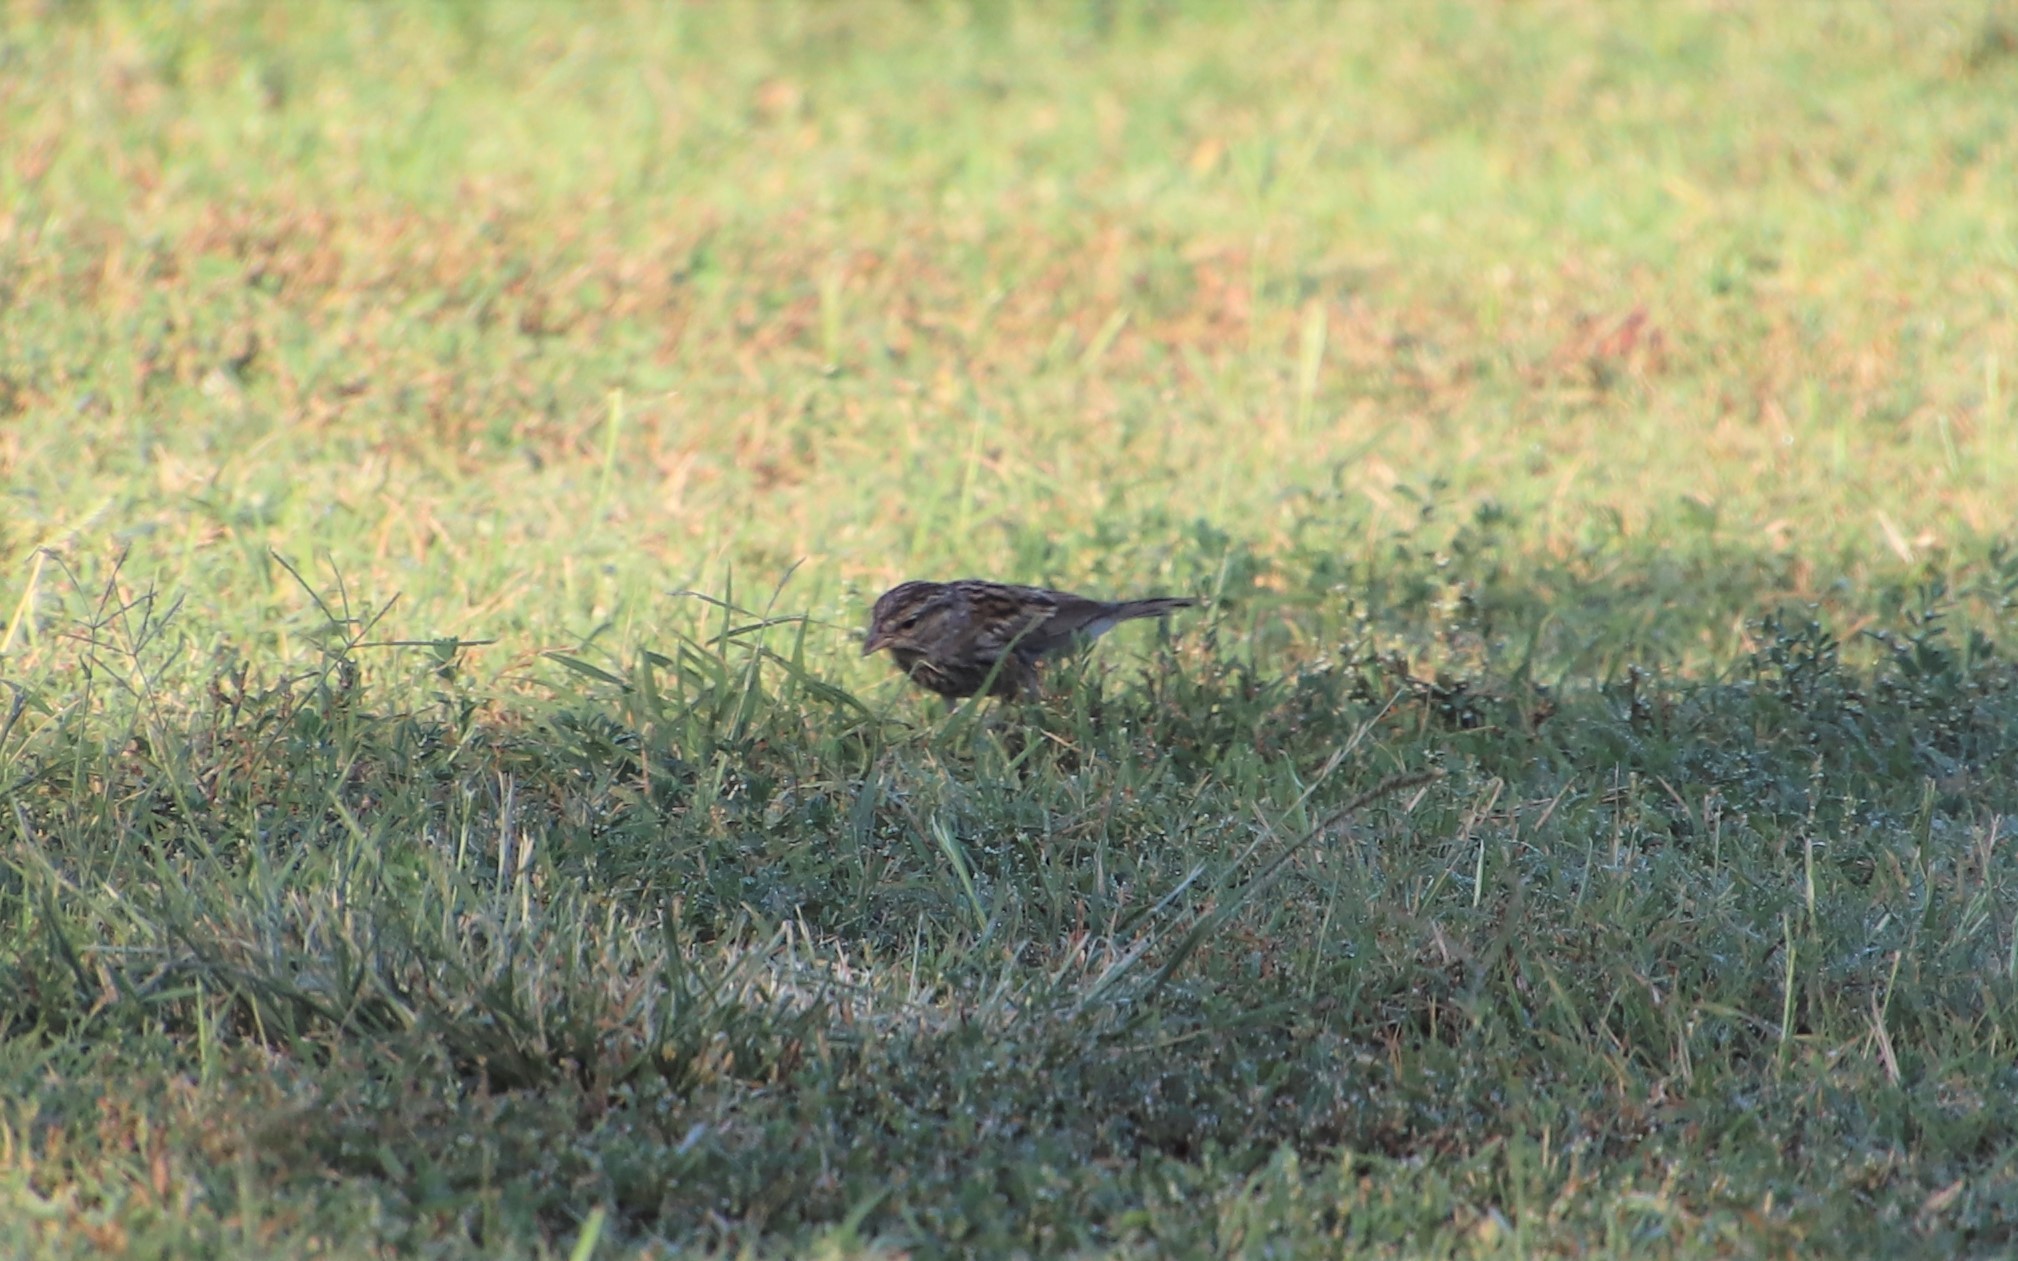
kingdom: Animalia
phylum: Chordata
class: Aves
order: Passeriformes
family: Passerellidae
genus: Spizella
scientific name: Spizella passerina
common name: Chipping sparrow
